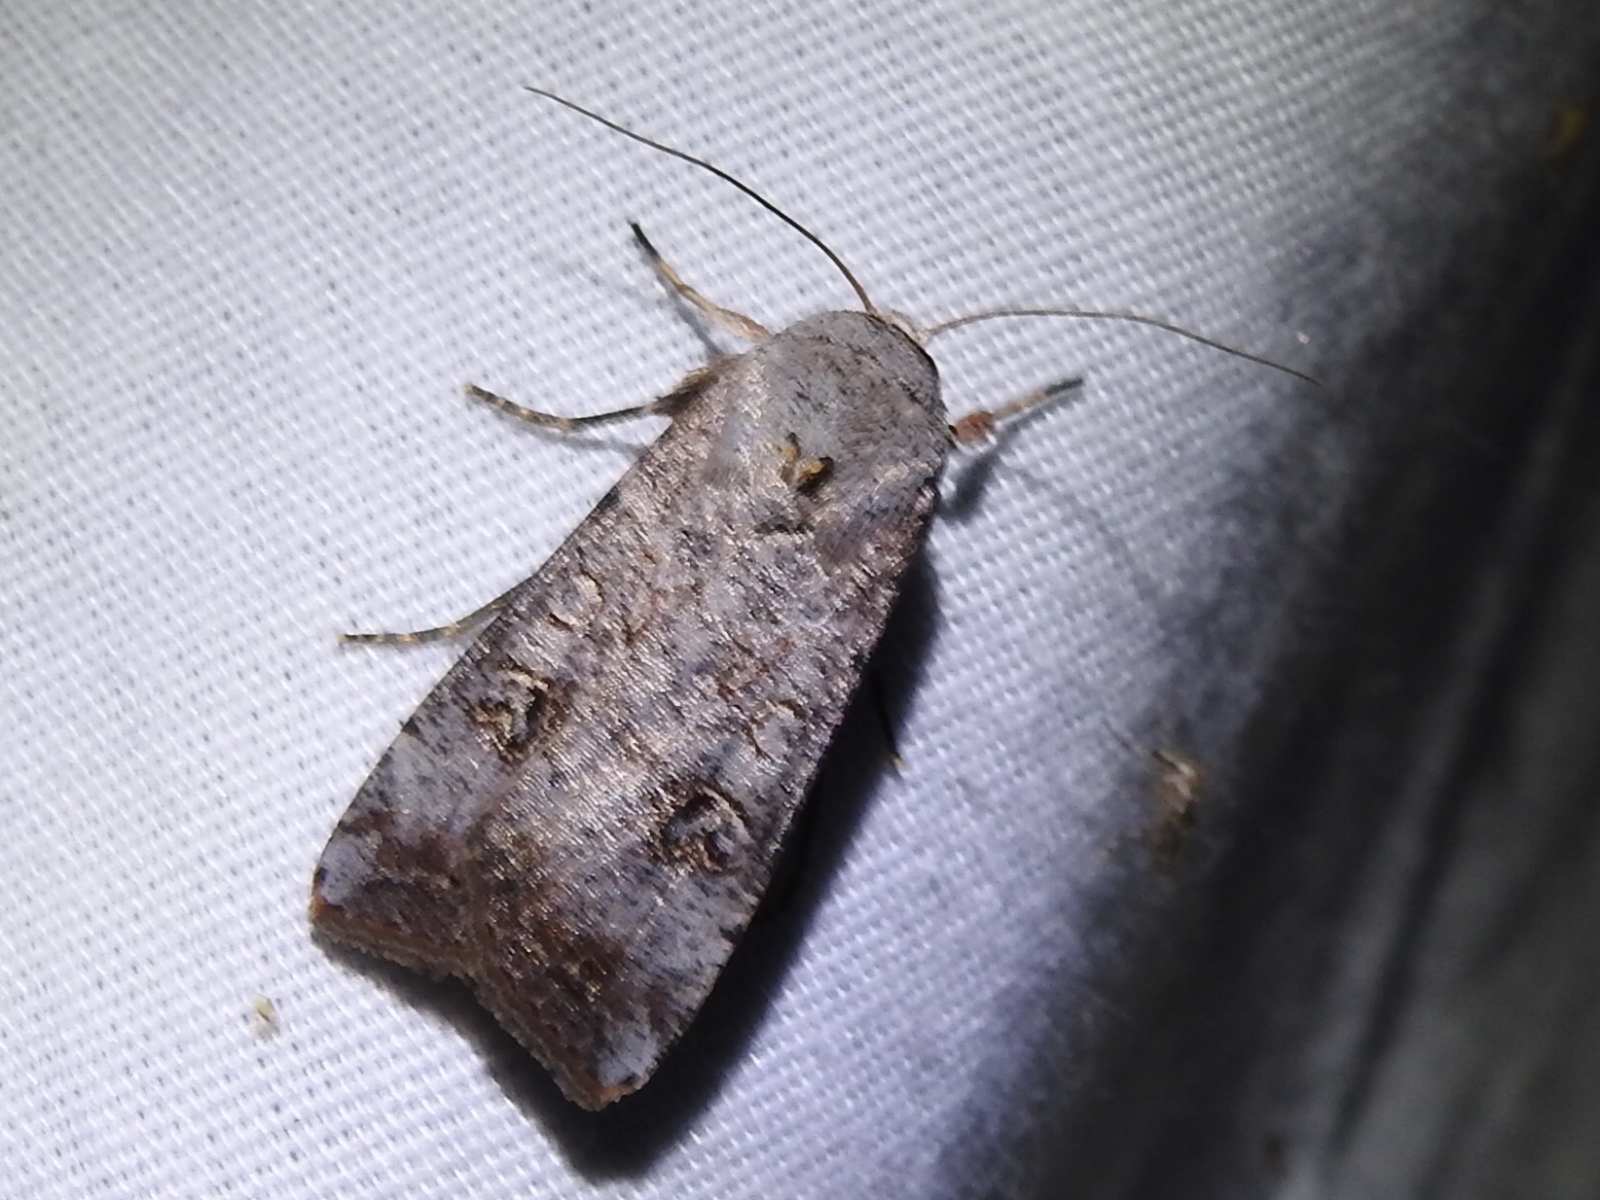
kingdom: Animalia
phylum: Arthropoda
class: Insecta
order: Lepidoptera
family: Noctuidae
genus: Anicla
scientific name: Anicla infecta
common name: Green cutworm
